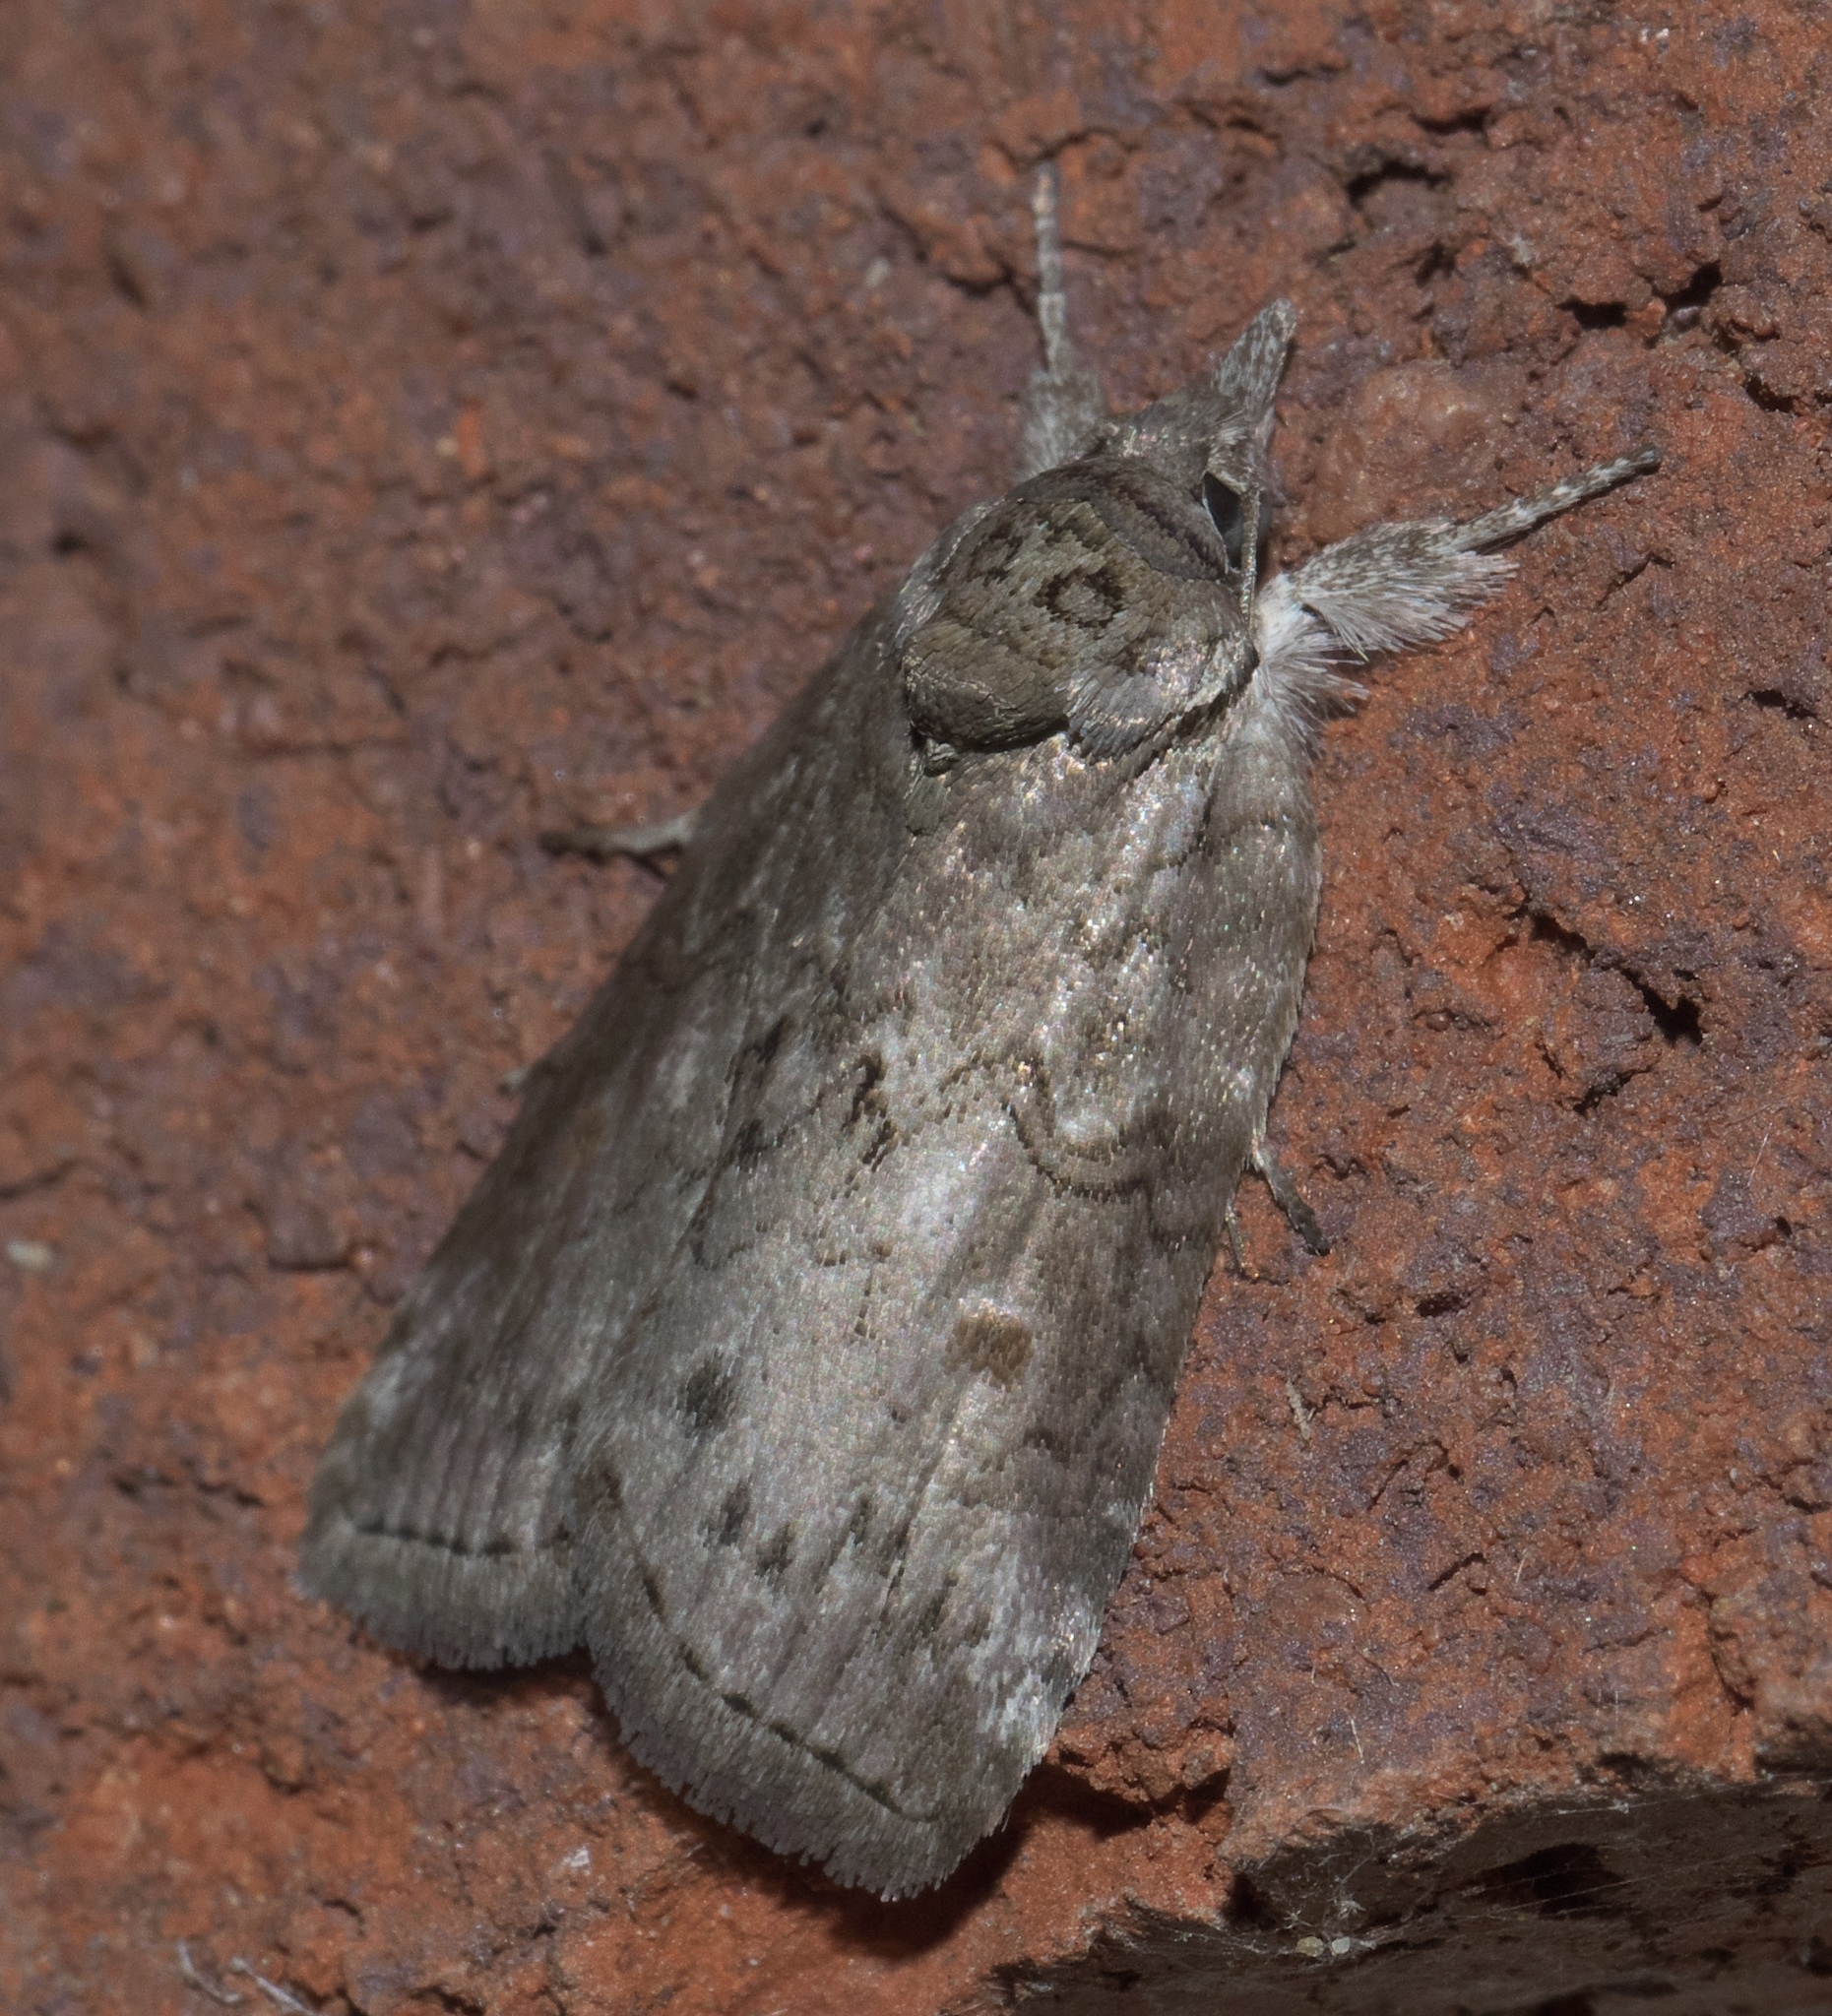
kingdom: Animalia
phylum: Arthropoda
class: Insecta
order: Lepidoptera
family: Nolidae
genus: Nycteola
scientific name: Nycteola metaspilella
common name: Forgotten frigid owlet
